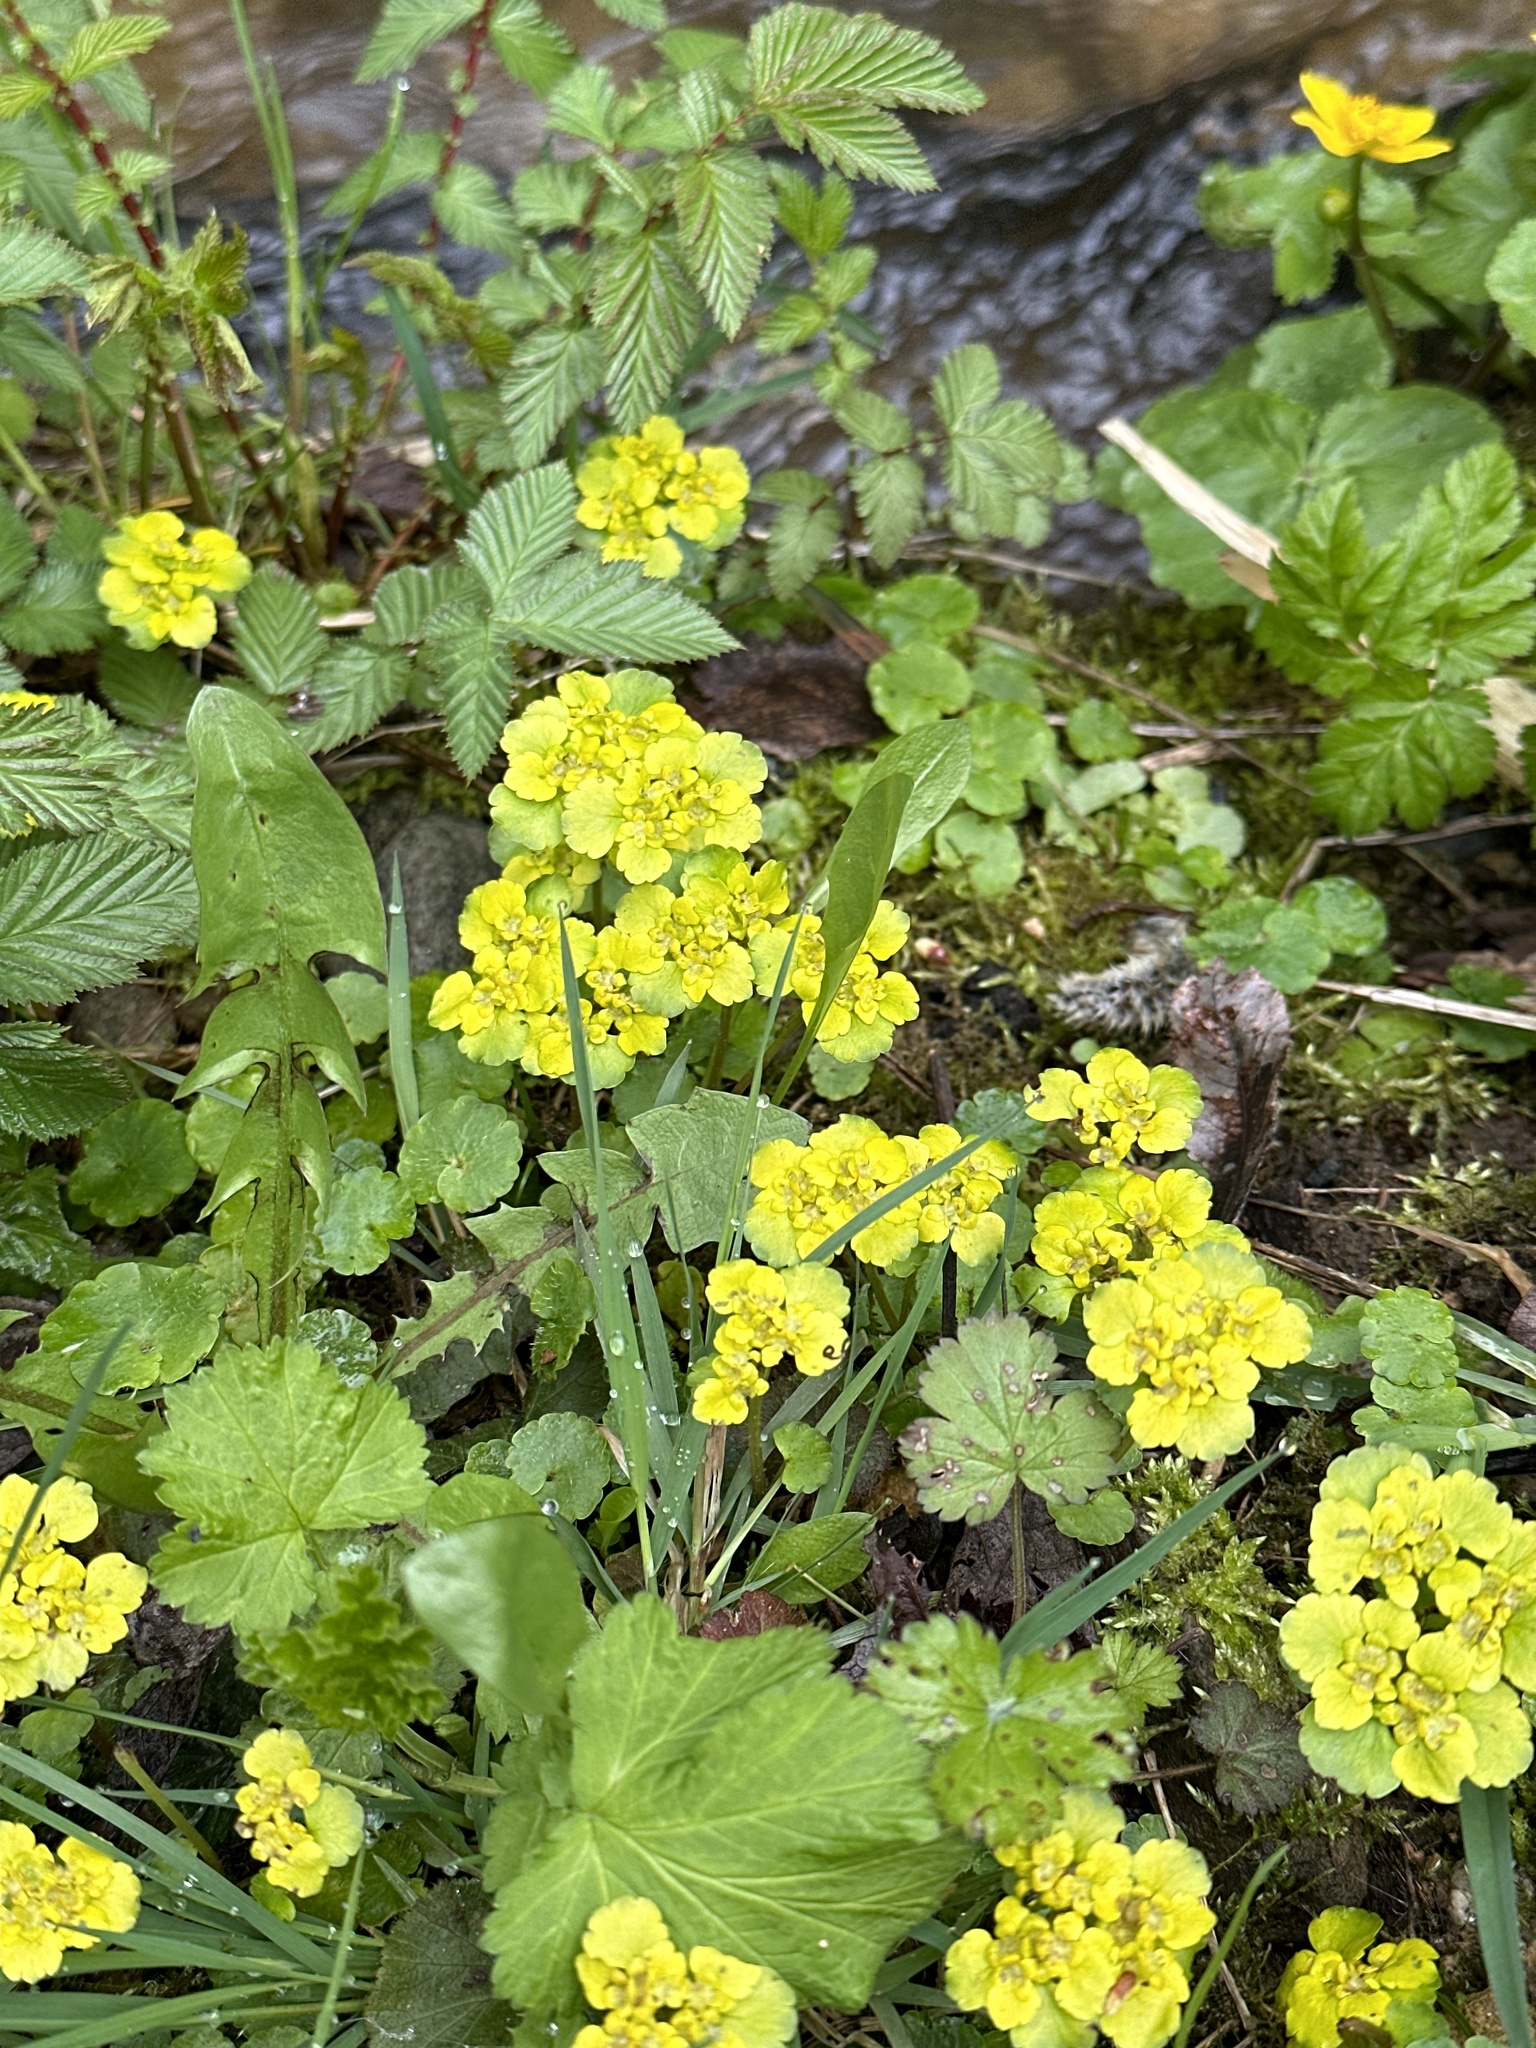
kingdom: Plantae
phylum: Tracheophyta
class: Magnoliopsida
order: Saxifragales
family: Saxifragaceae
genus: Chrysosplenium
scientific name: Chrysosplenium alternifolium
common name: Alternate-leaved golden-saxifrage
